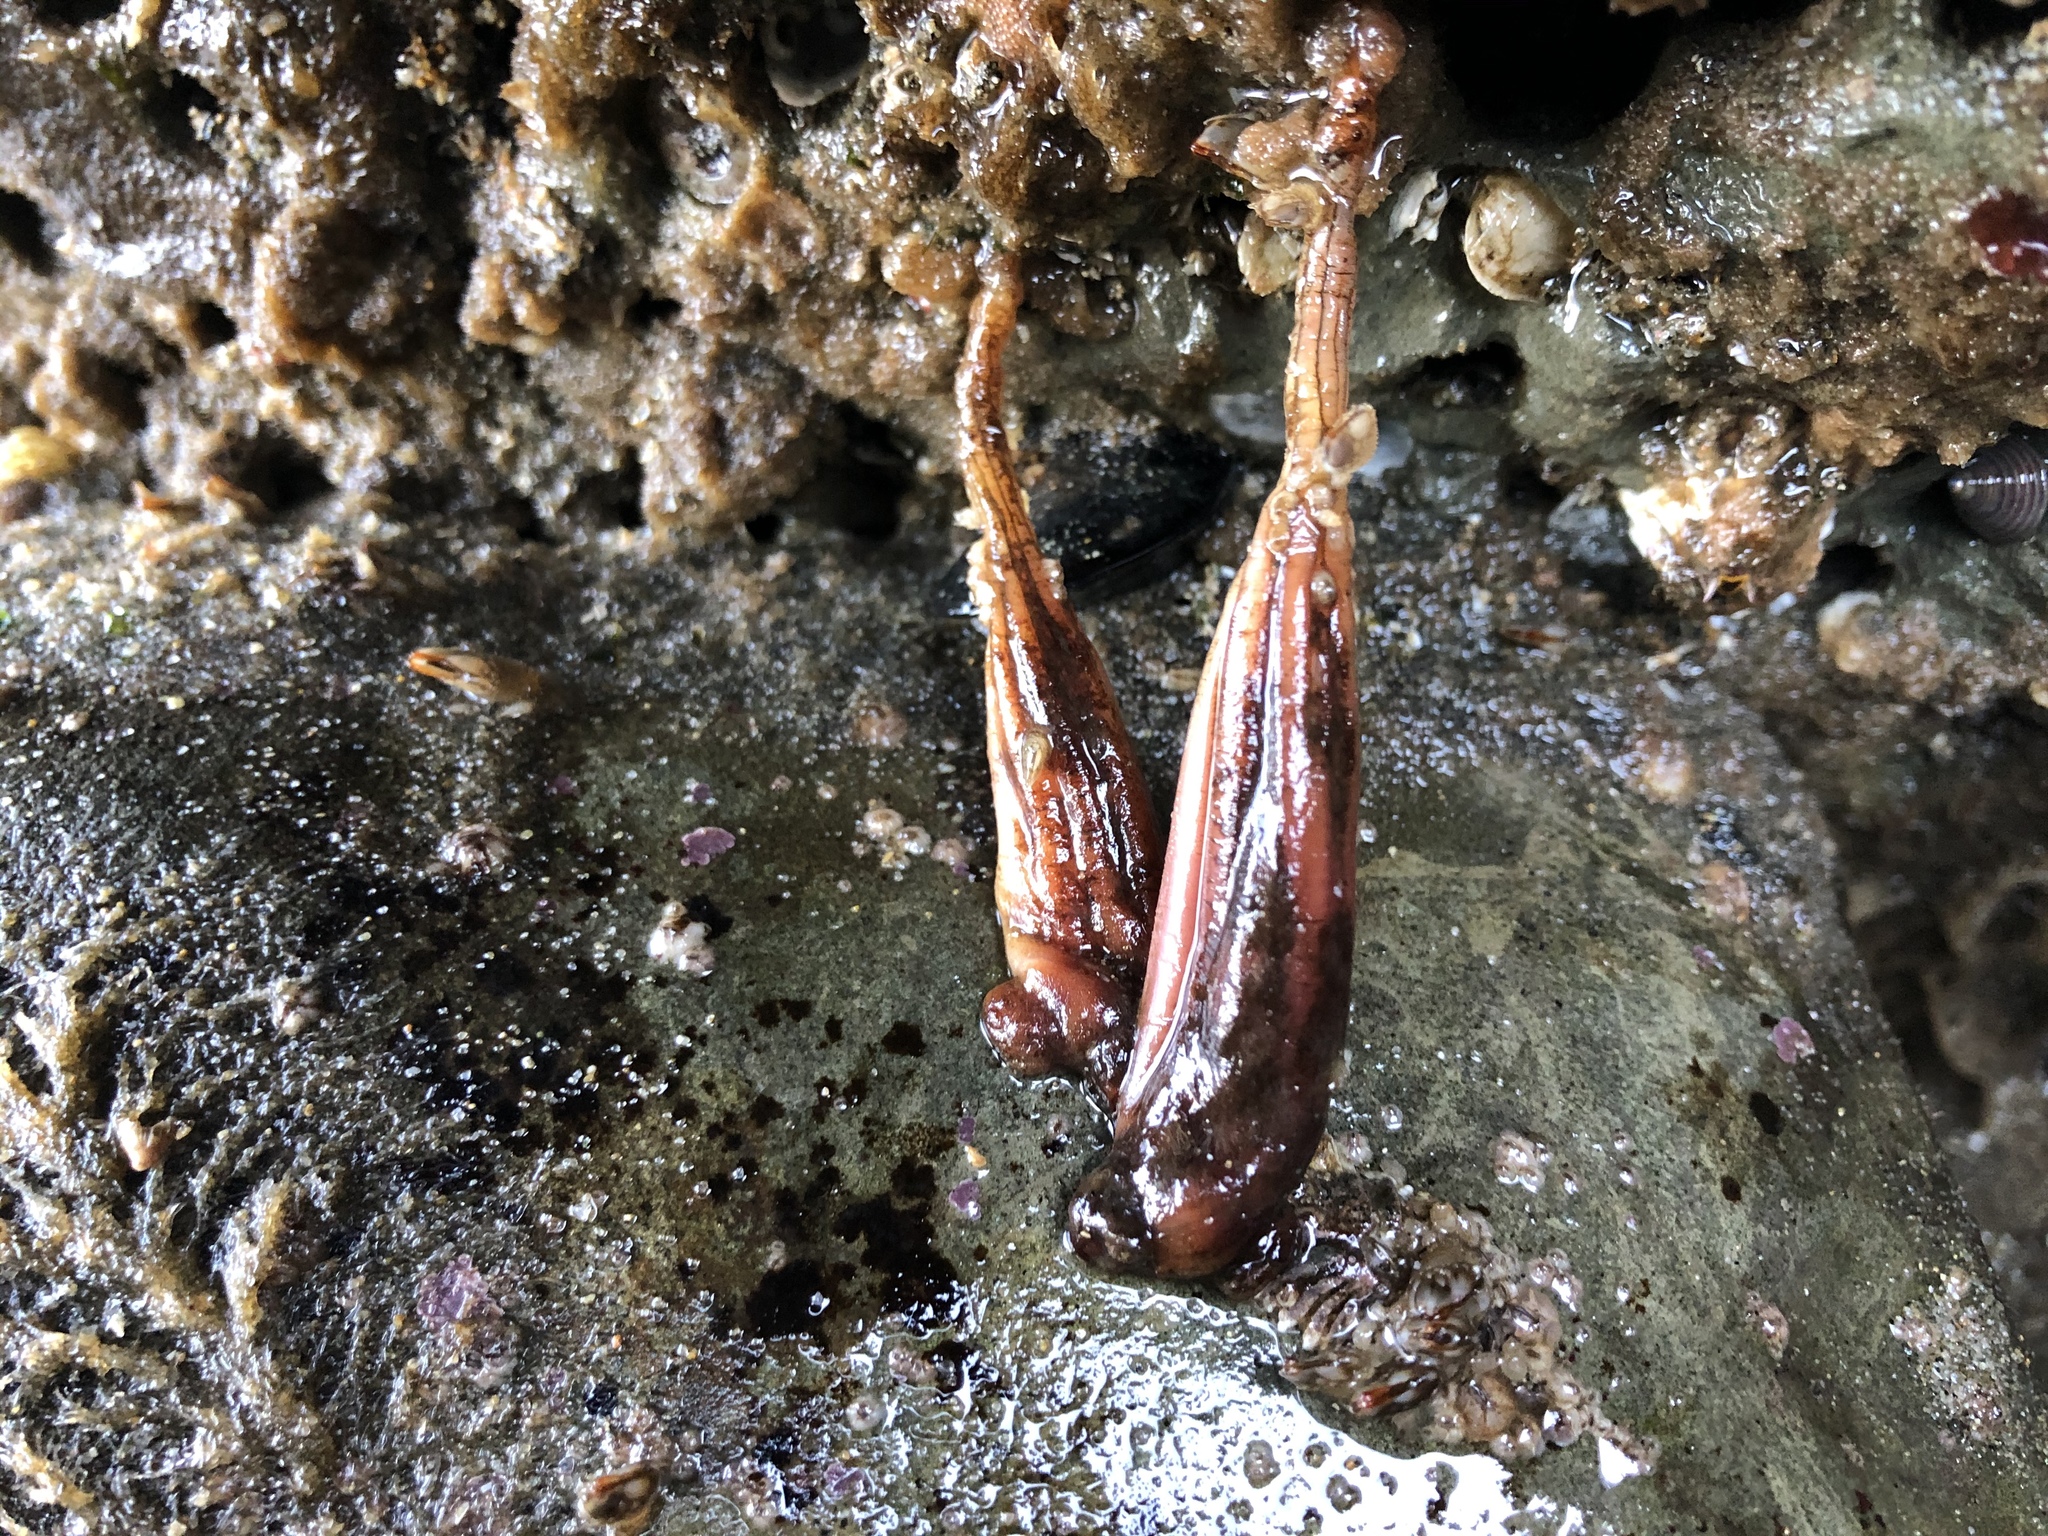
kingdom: Animalia
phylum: Chordata
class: Ascidiacea
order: Stolidobranchia
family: Styelidae
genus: Styela
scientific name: Styela montereyensis
